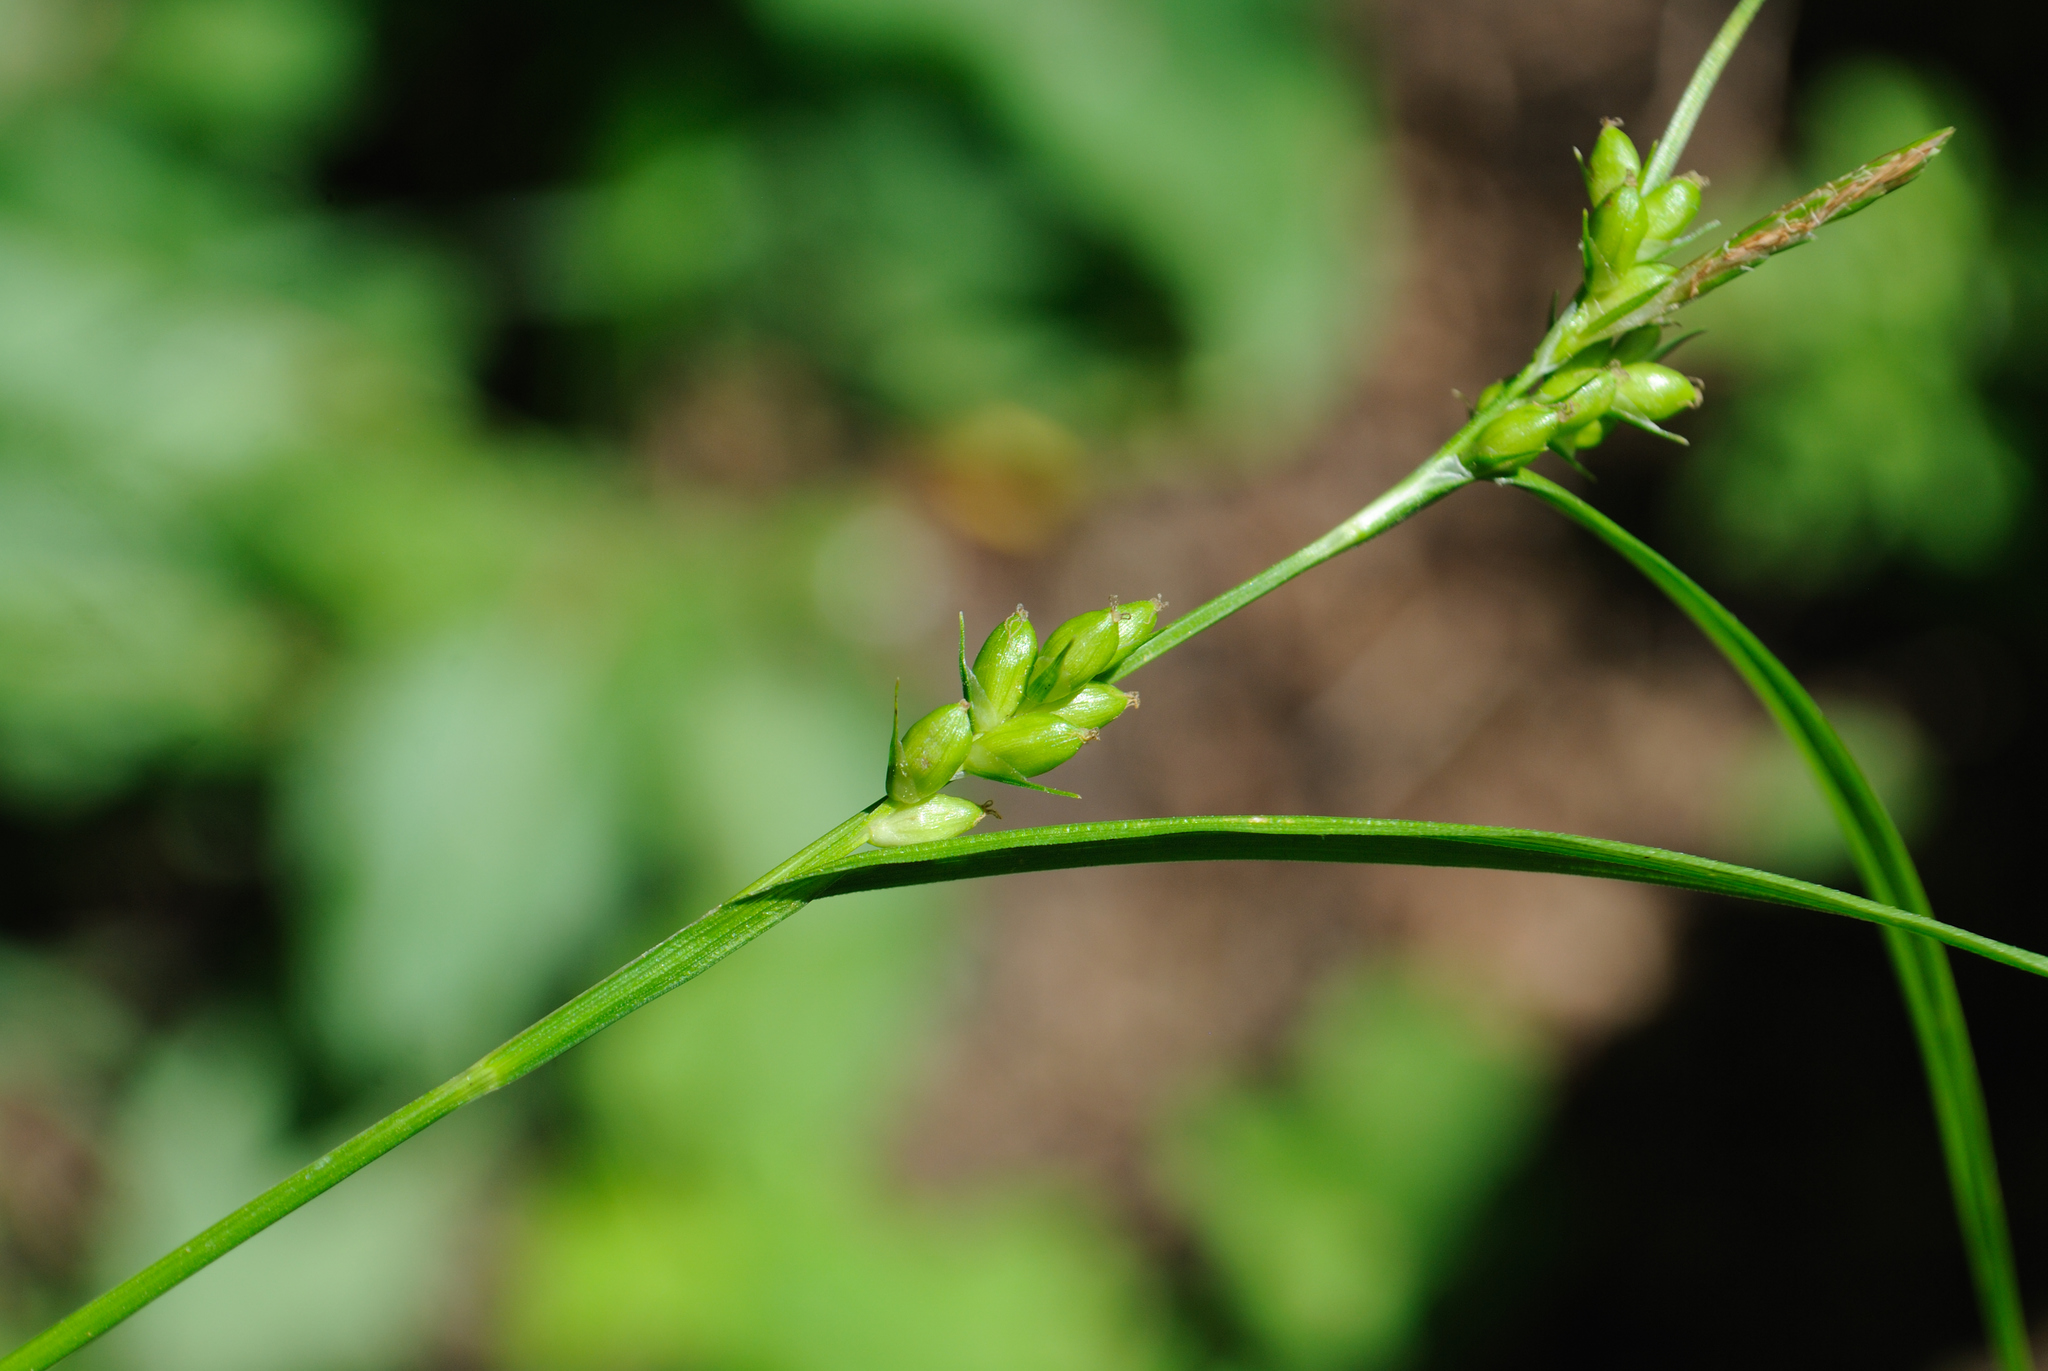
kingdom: Plantae
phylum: Tracheophyta
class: Liliopsida
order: Poales
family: Cyperaceae
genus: Carex
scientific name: Carex grisea
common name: Eastern narrow-leaved sedge
